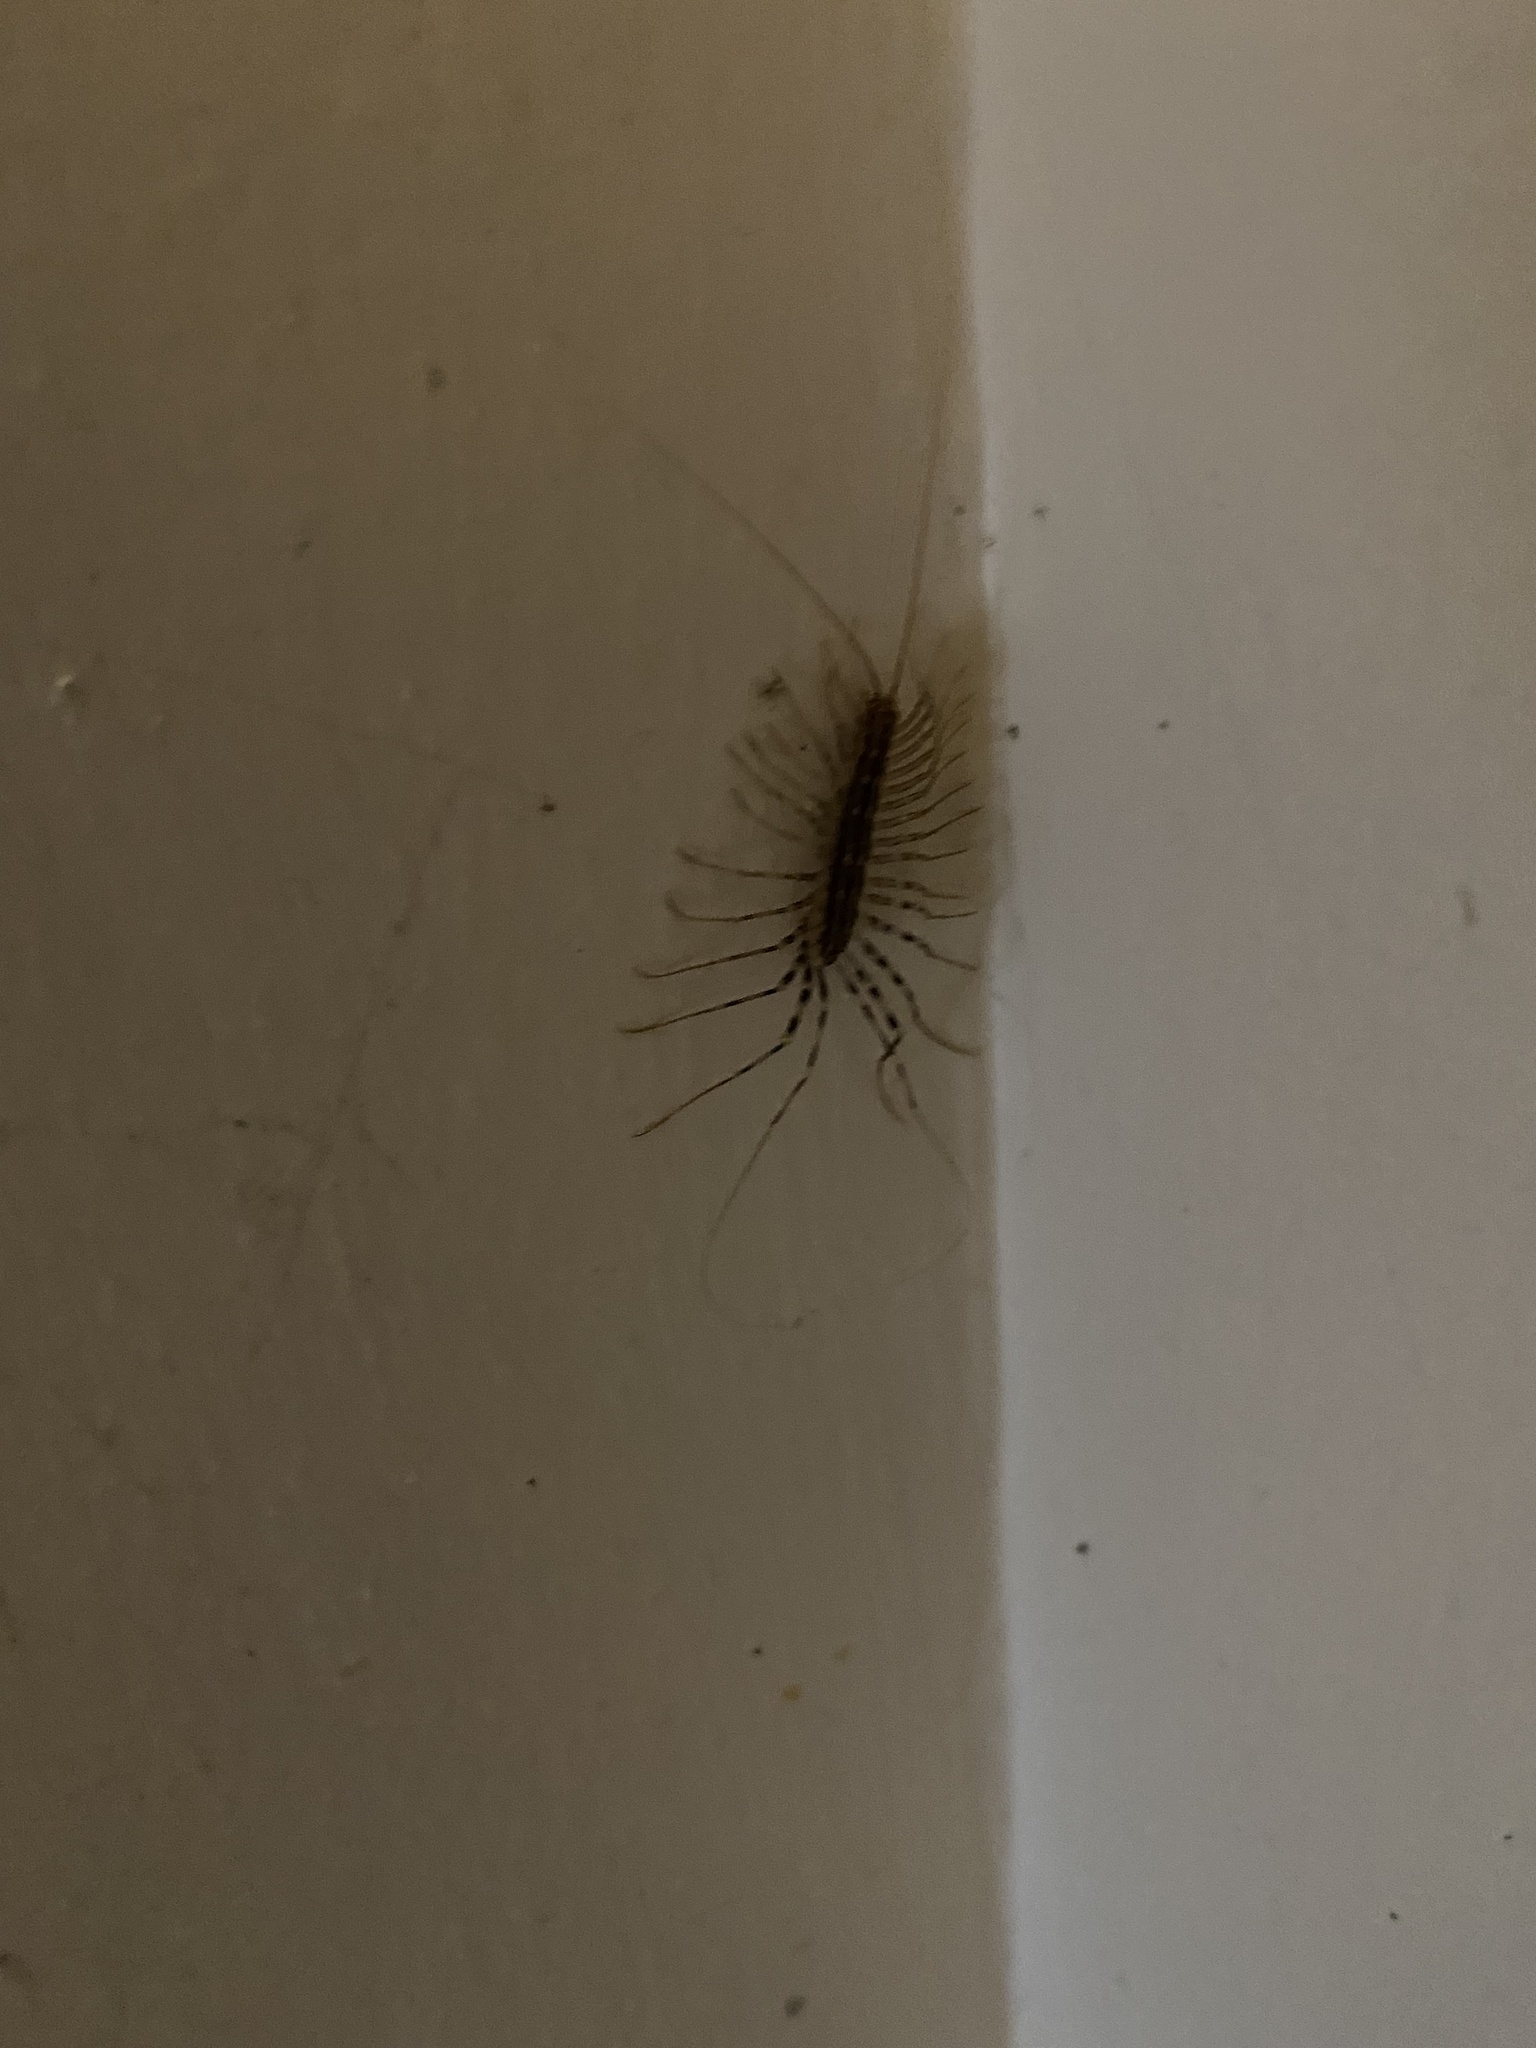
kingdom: Animalia
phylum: Arthropoda
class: Chilopoda
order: Scutigeromorpha
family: Scutigeridae
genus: Scutigera
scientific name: Scutigera coleoptrata
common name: House centipede
